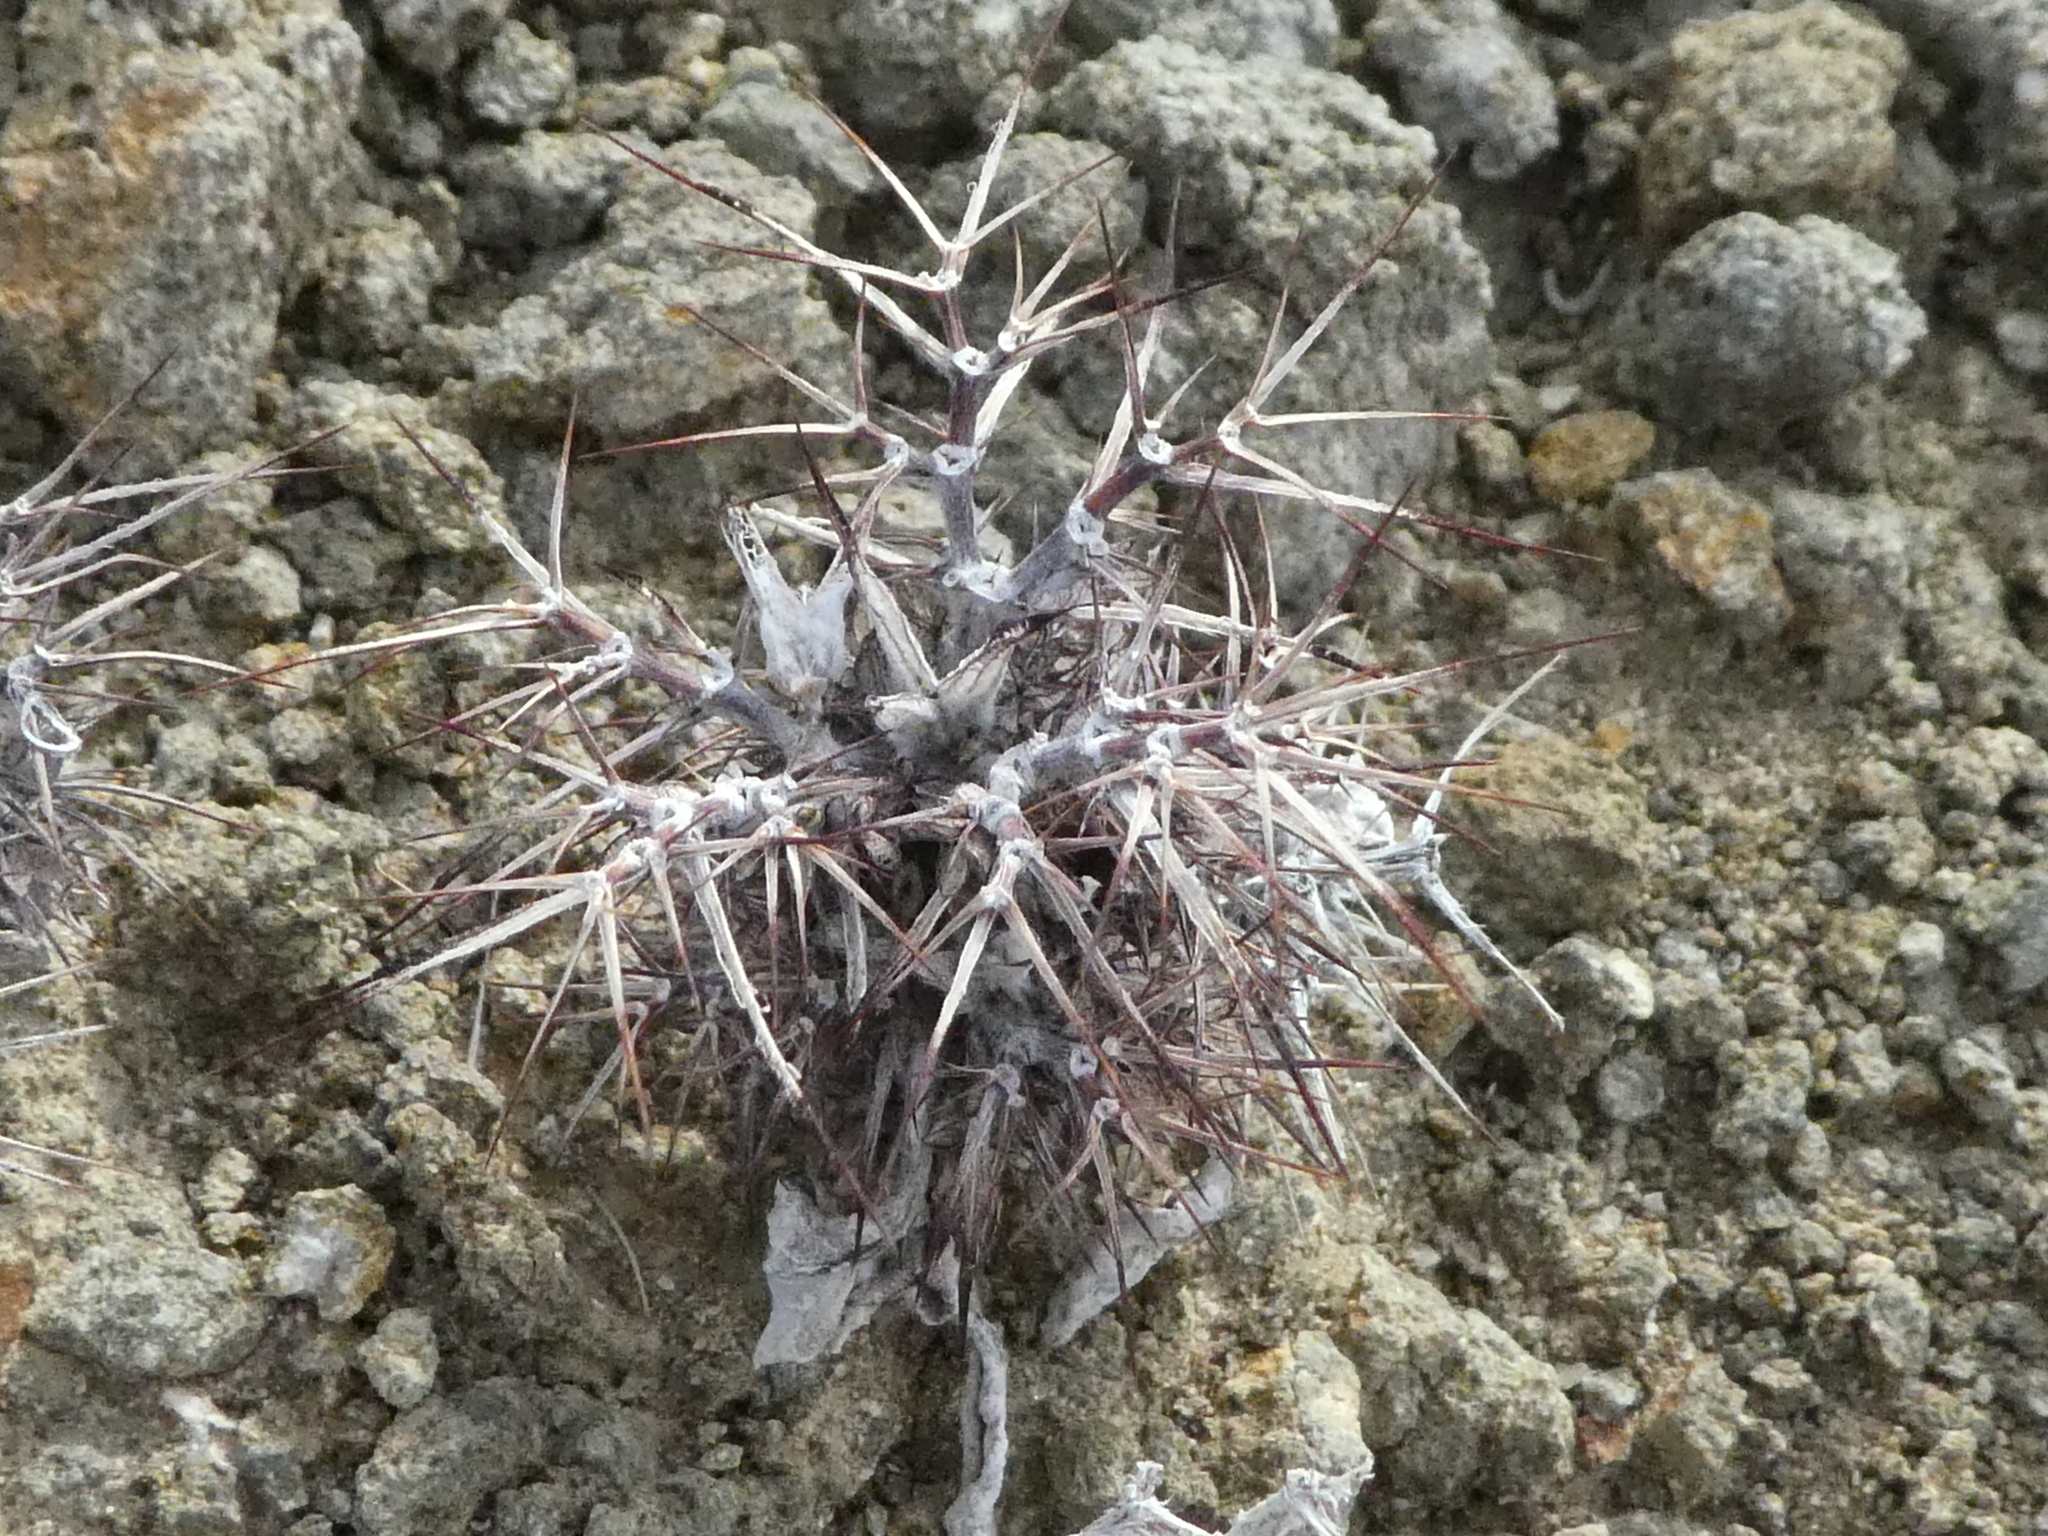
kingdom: Plantae
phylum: Tracheophyta
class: Magnoliopsida
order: Caryophyllales
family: Polygonaceae
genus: Chorizanthe
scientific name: Chorizanthe rigida
